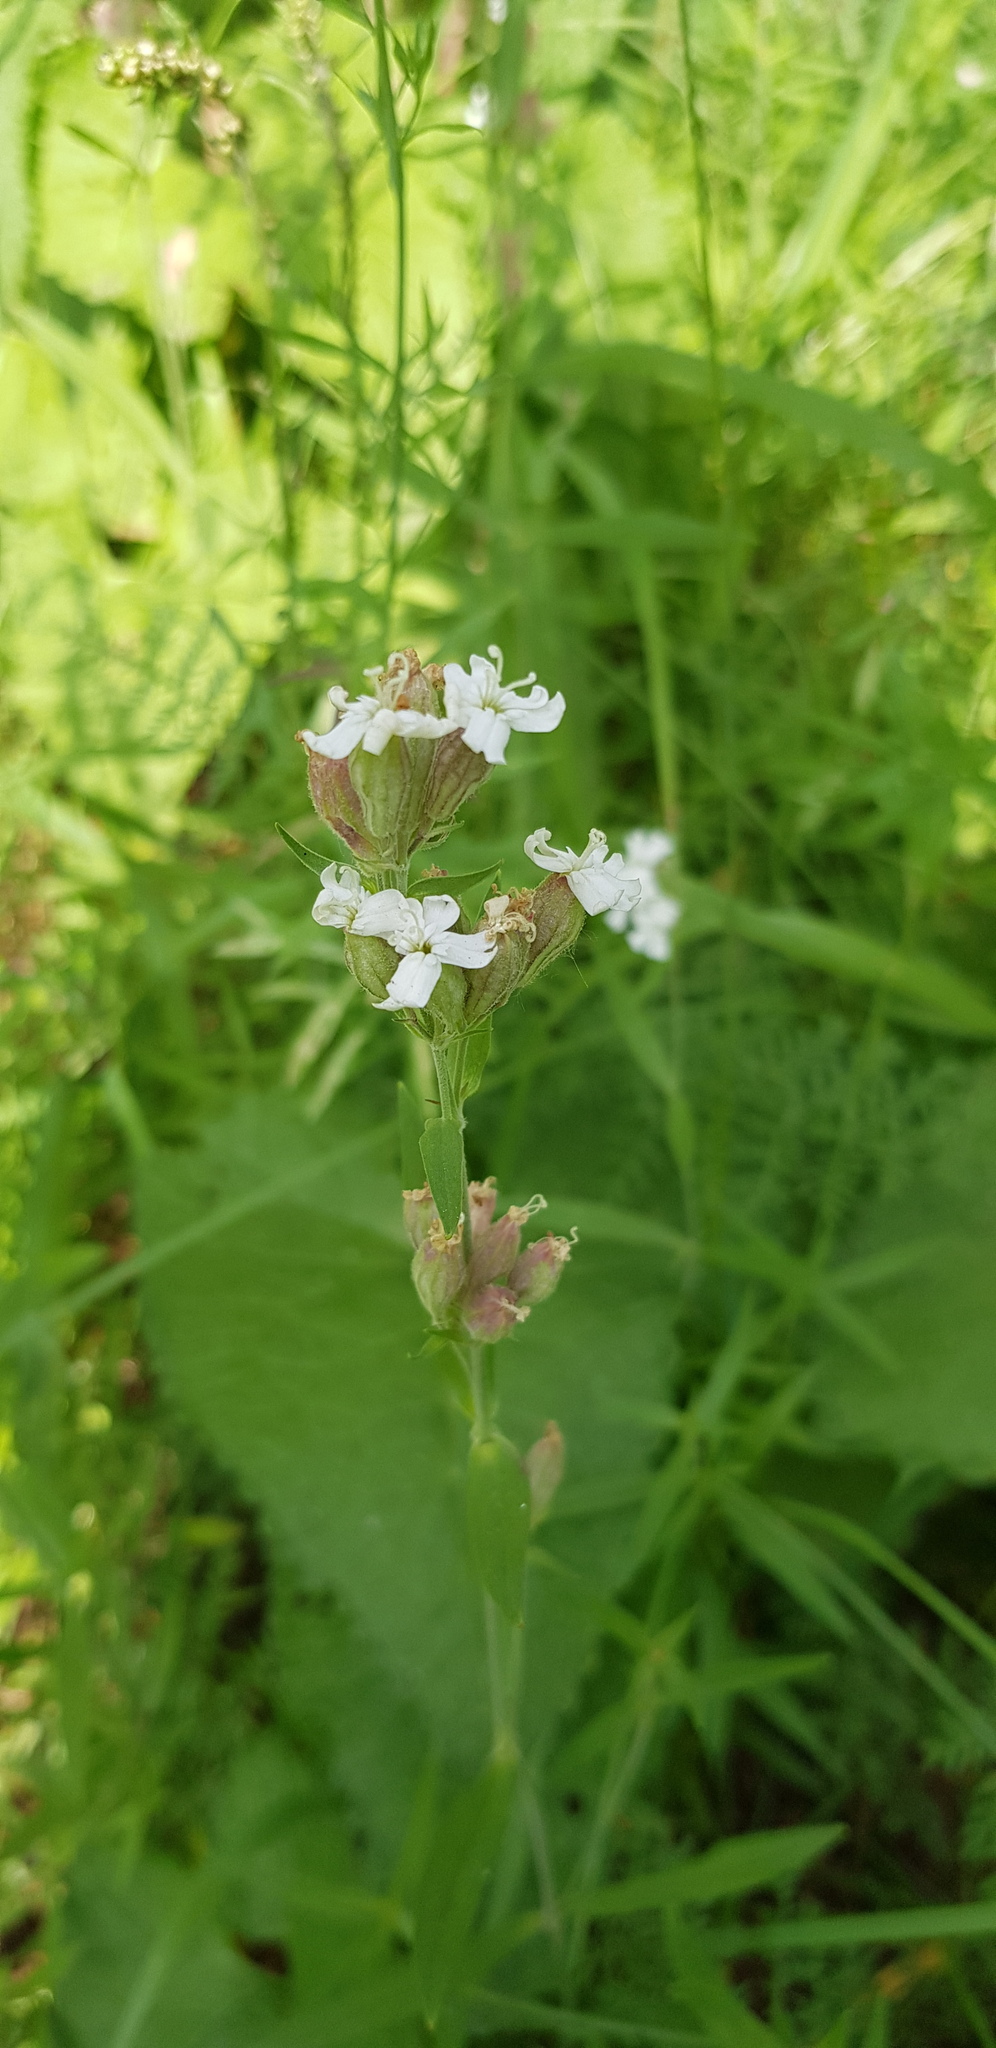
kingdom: Plantae
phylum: Tracheophyta
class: Magnoliopsida
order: Caryophyllales
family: Caryophyllaceae
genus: Silene
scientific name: Silene amoena
